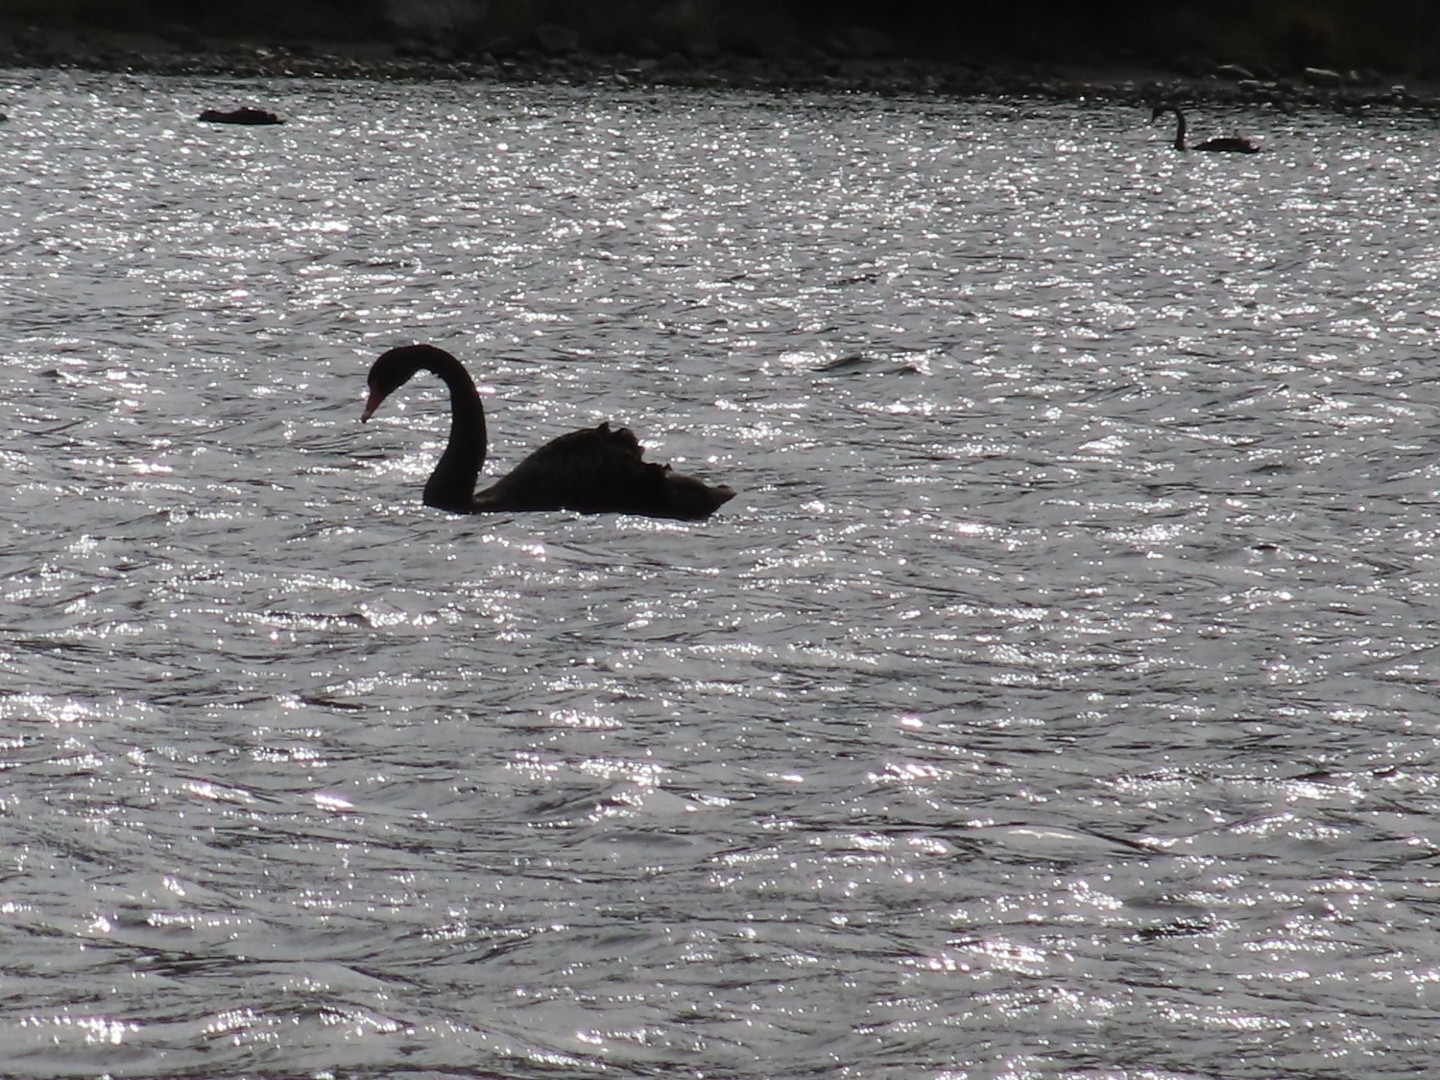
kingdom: Animalia
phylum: Chordata
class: Aves
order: Anseriformes
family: Anatidae
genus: Cygnus
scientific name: Cygnus atratus
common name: Black swan
